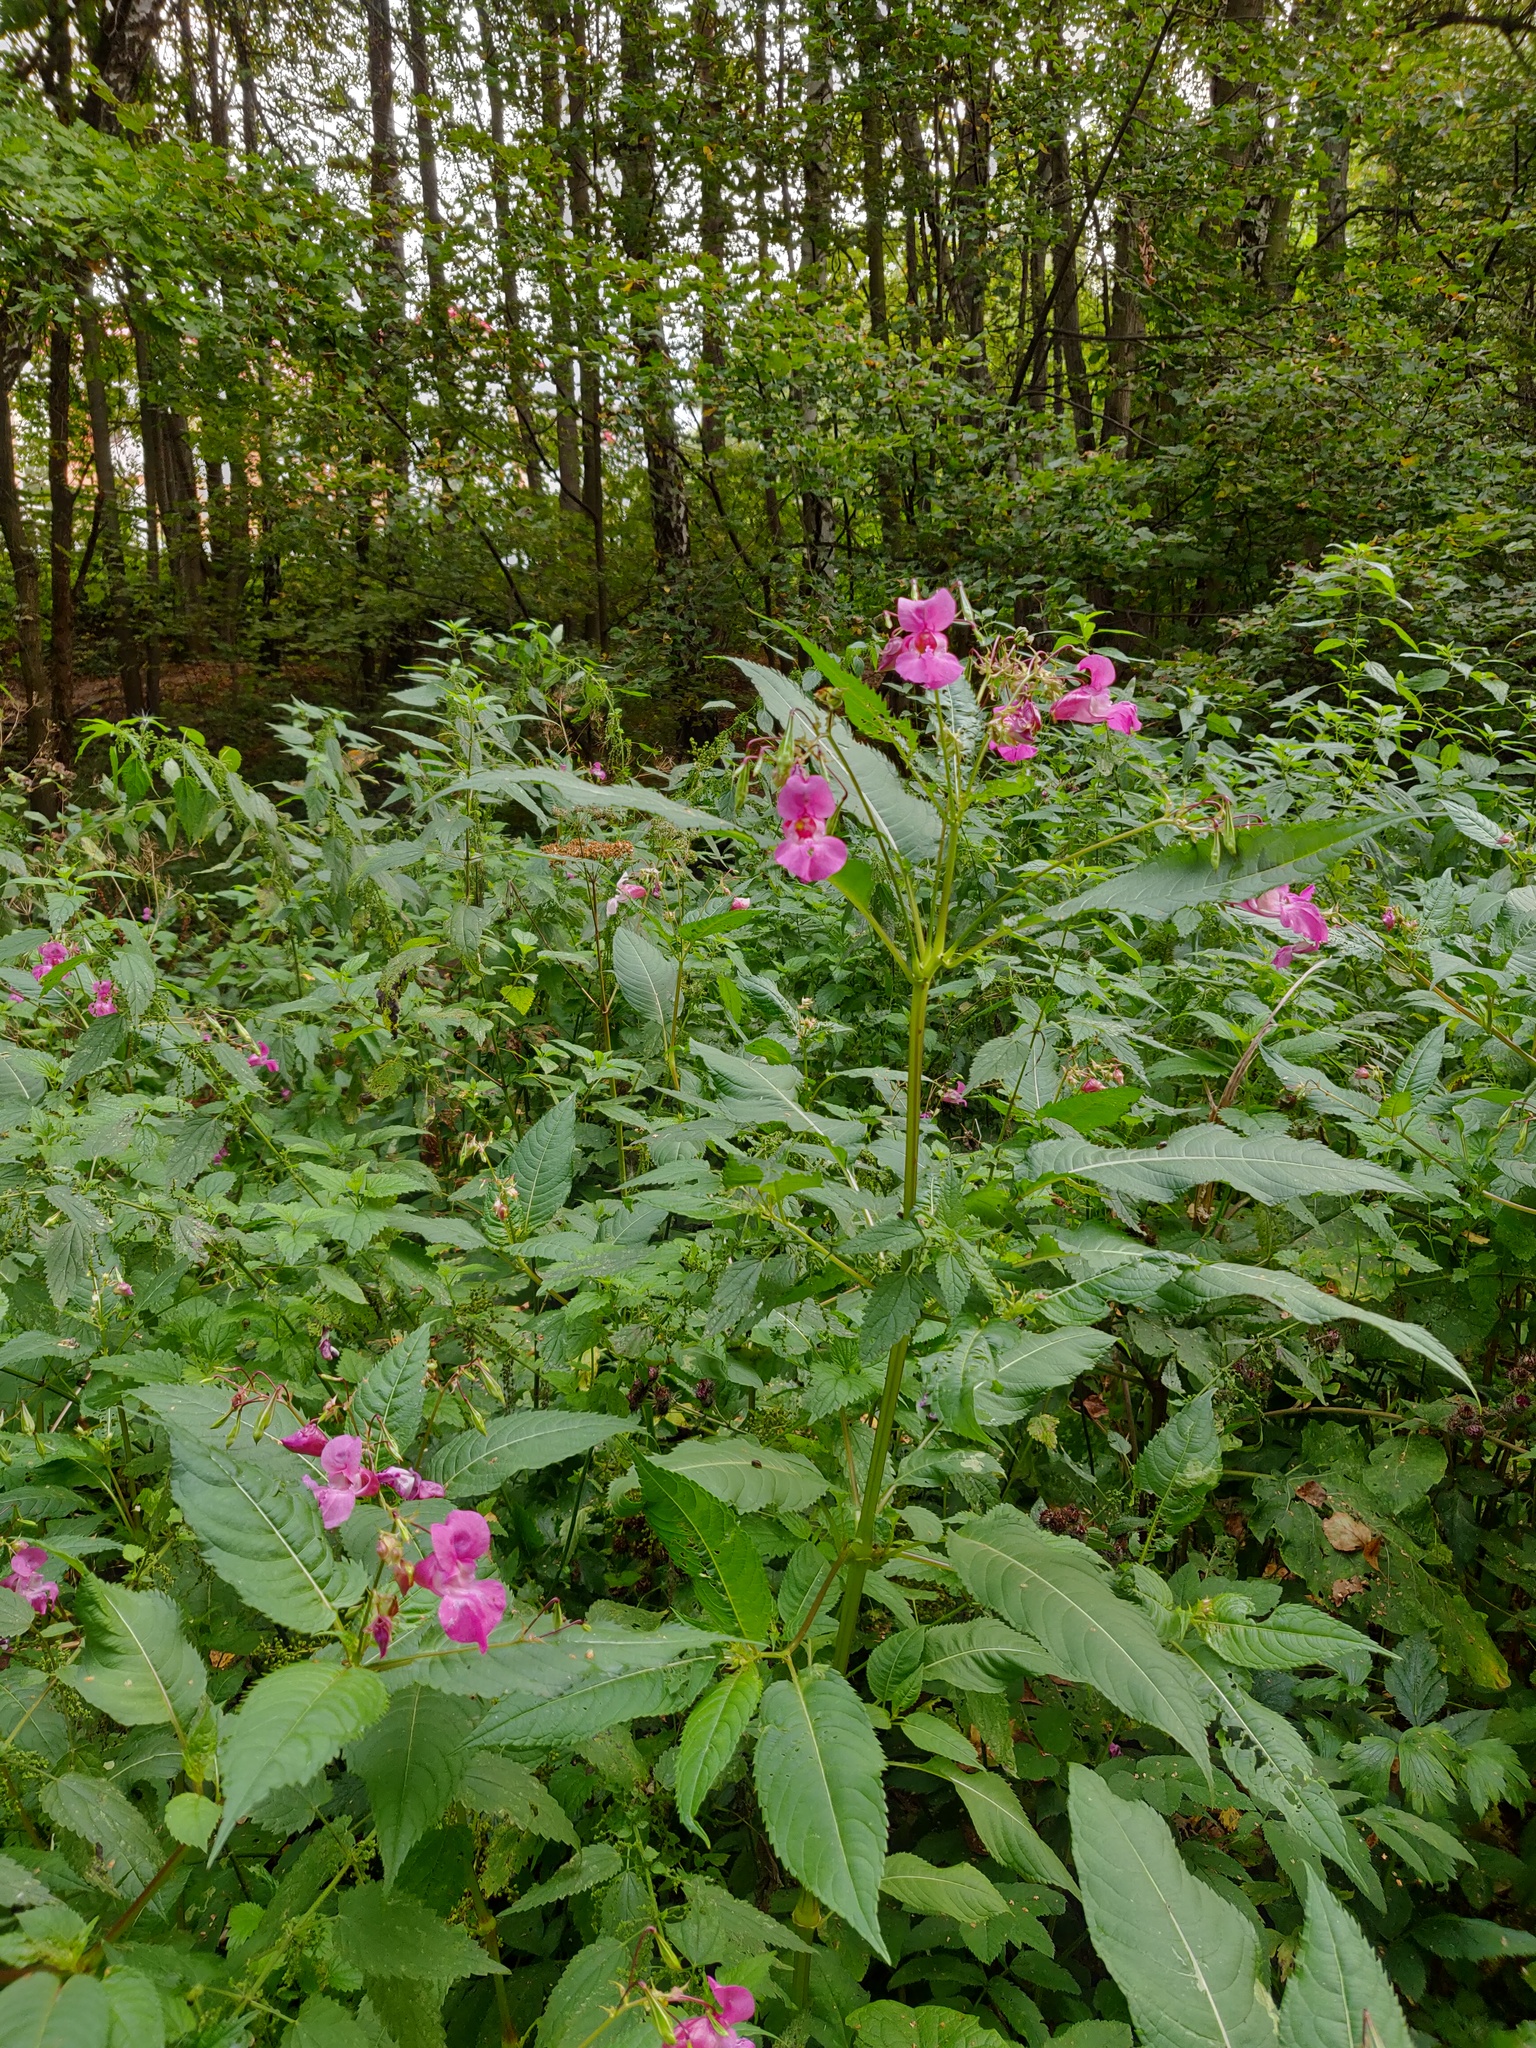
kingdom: Plantae
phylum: Tracheophyta
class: Magnoliopsida
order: Ericales
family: Balsaminaceae
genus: Impatiens
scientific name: Impatiens glandulifera
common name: Himalayan balsam
